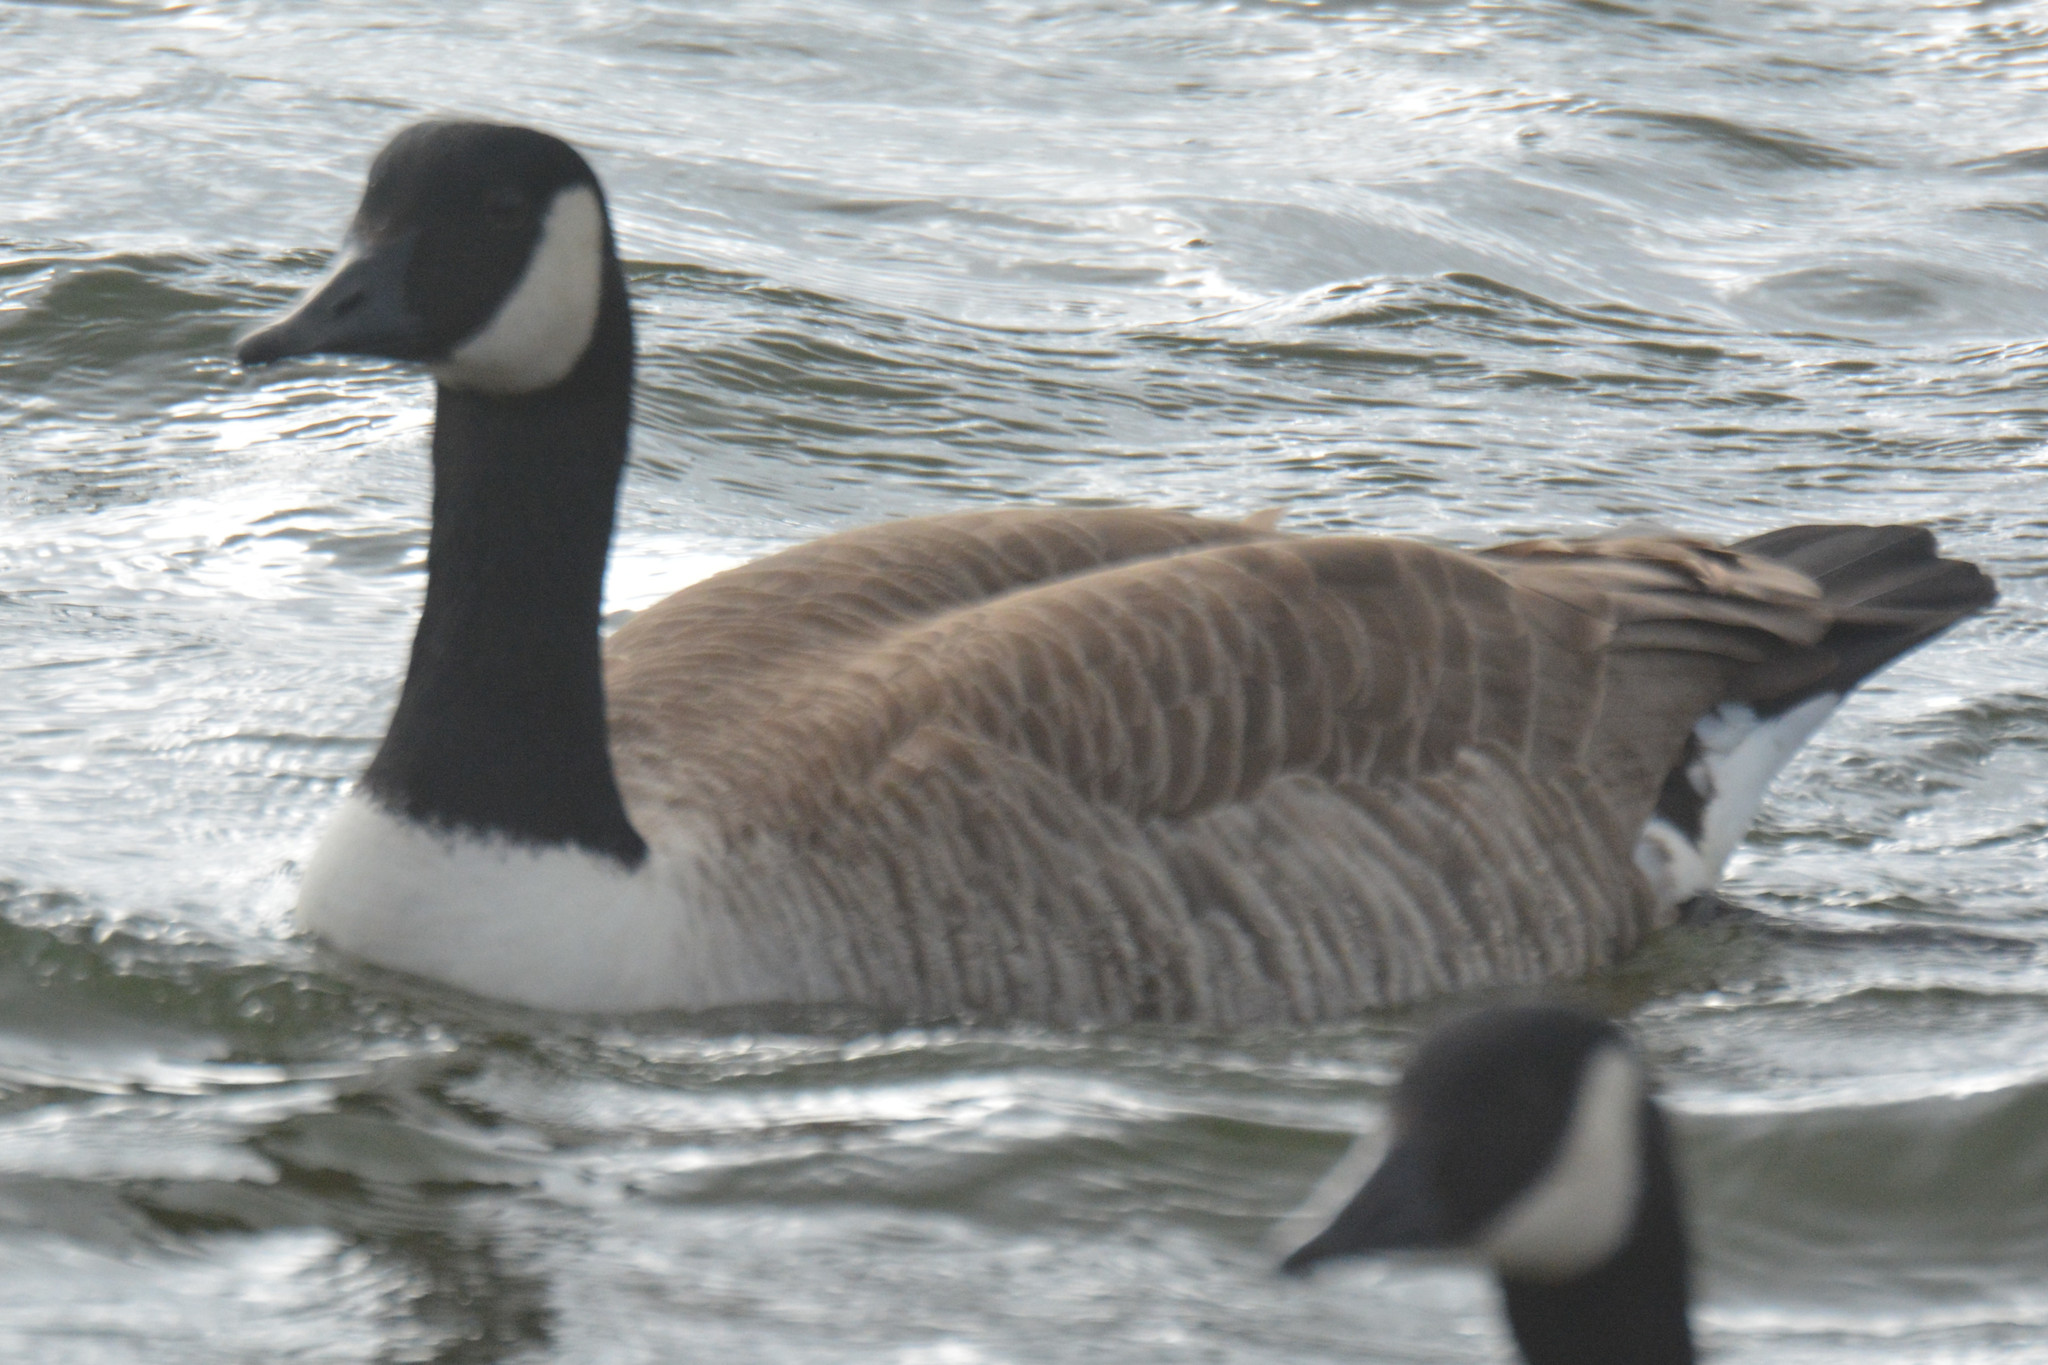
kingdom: Animalia
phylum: Chordata
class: Aves
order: Anseriformes
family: Anatidae
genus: Branta
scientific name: Branta canadensis
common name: Canada goose
